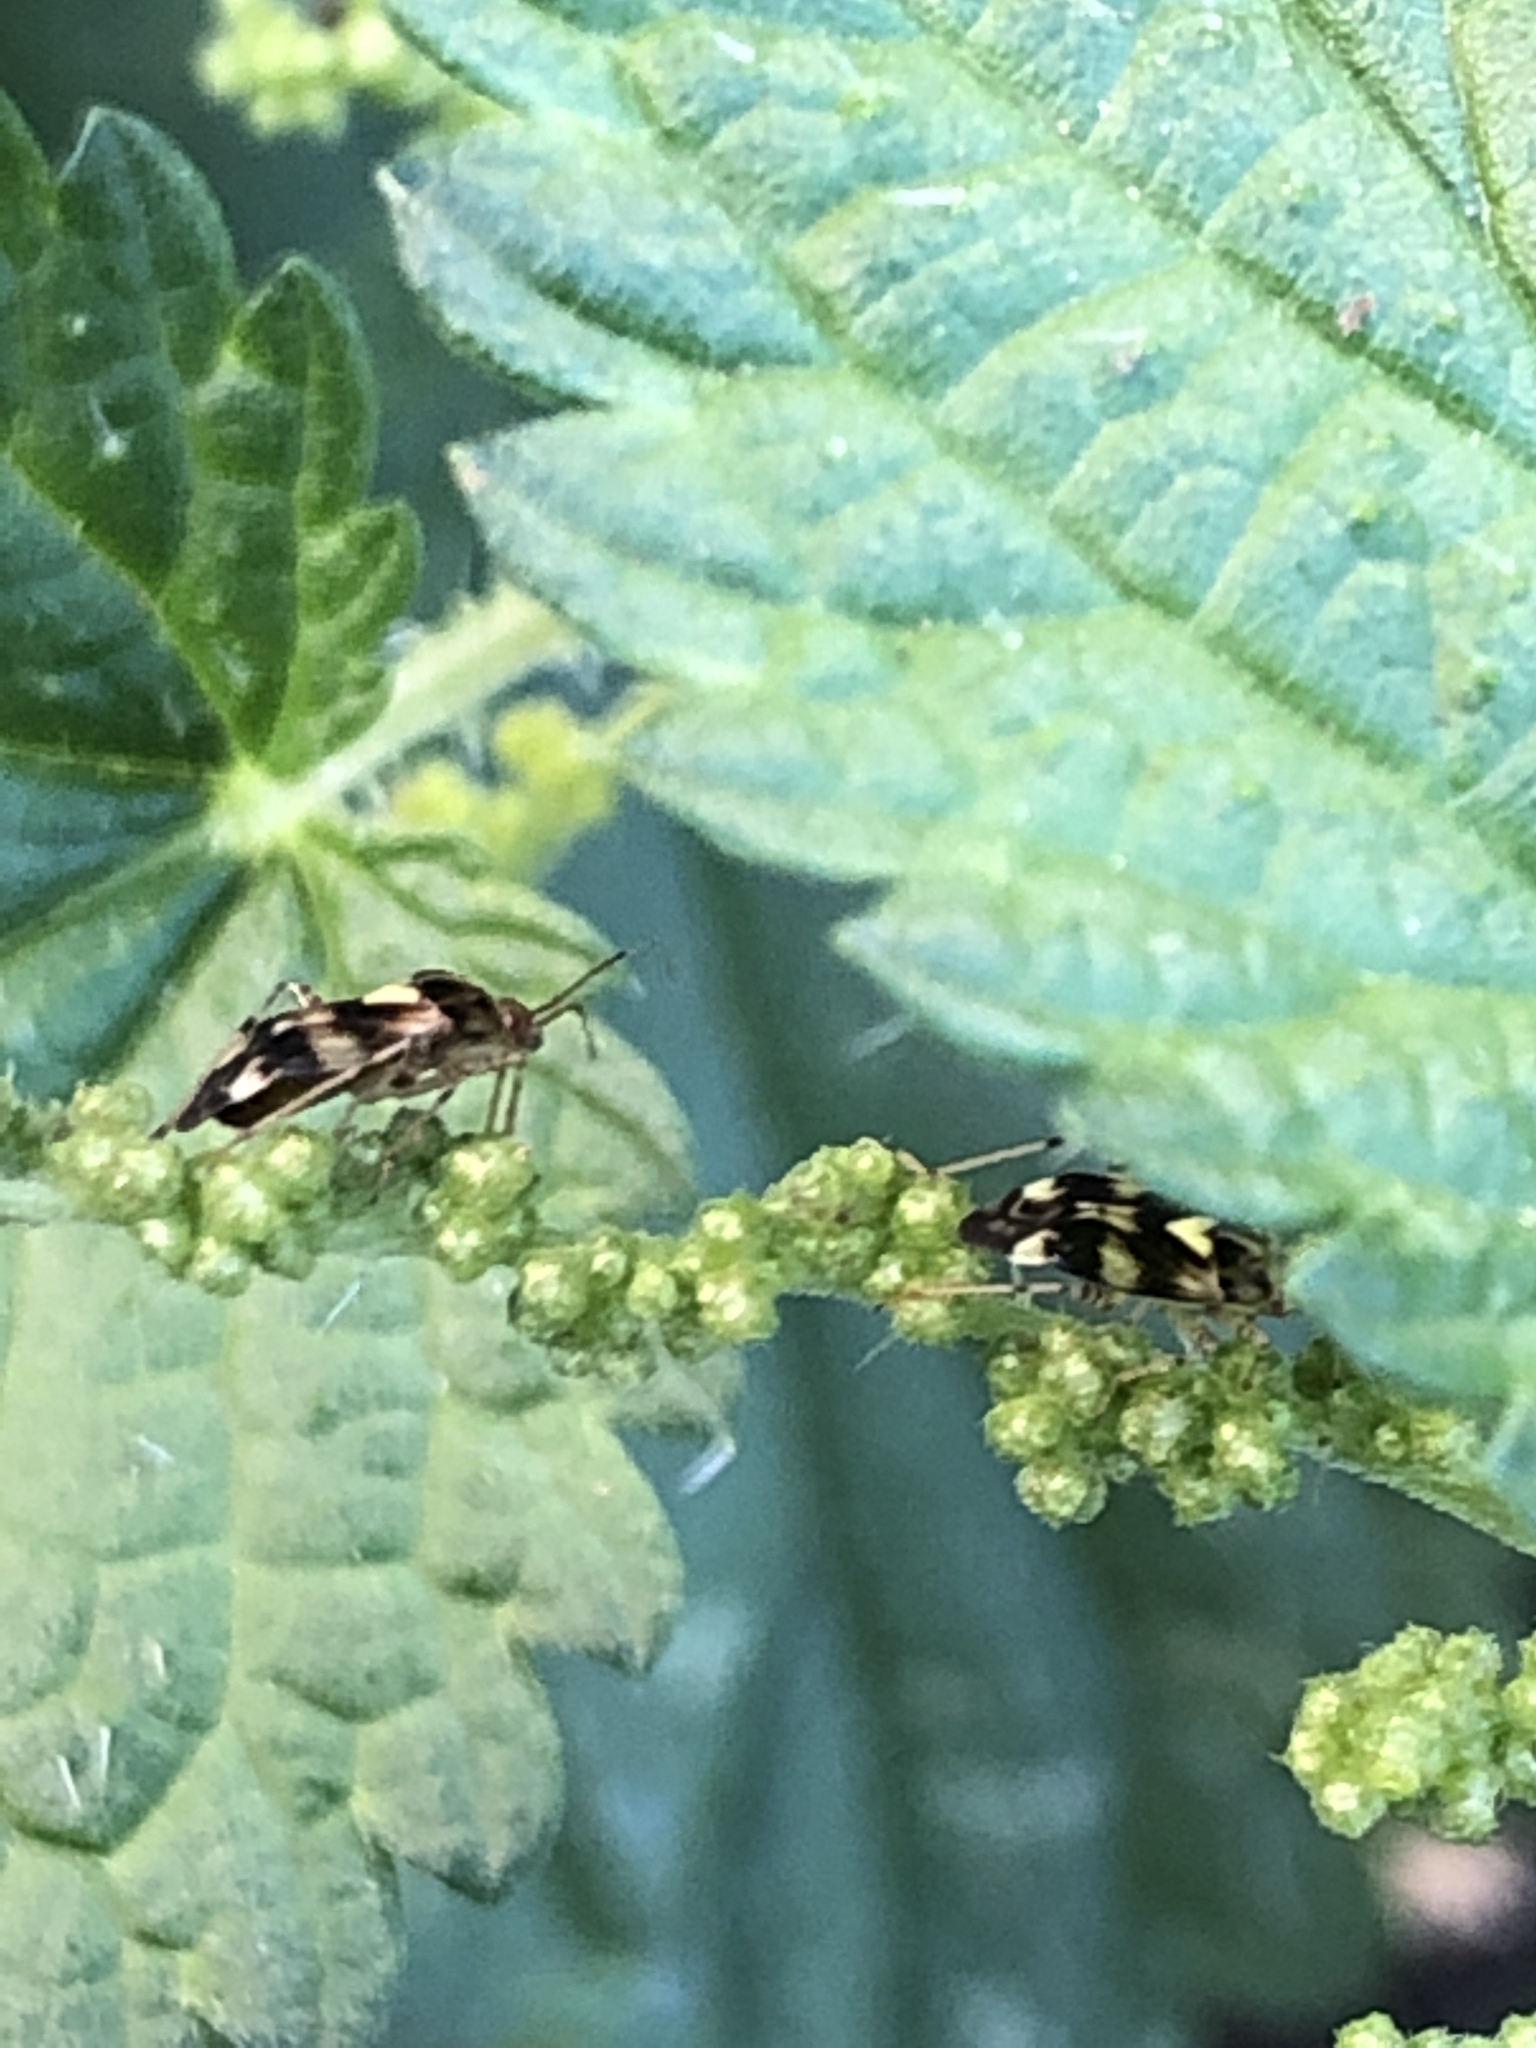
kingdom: Animalia
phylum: Arthropoda
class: Insecta
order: Hemiptera
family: Miridae
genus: Liocoris
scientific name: Liocoris tripustulatus
